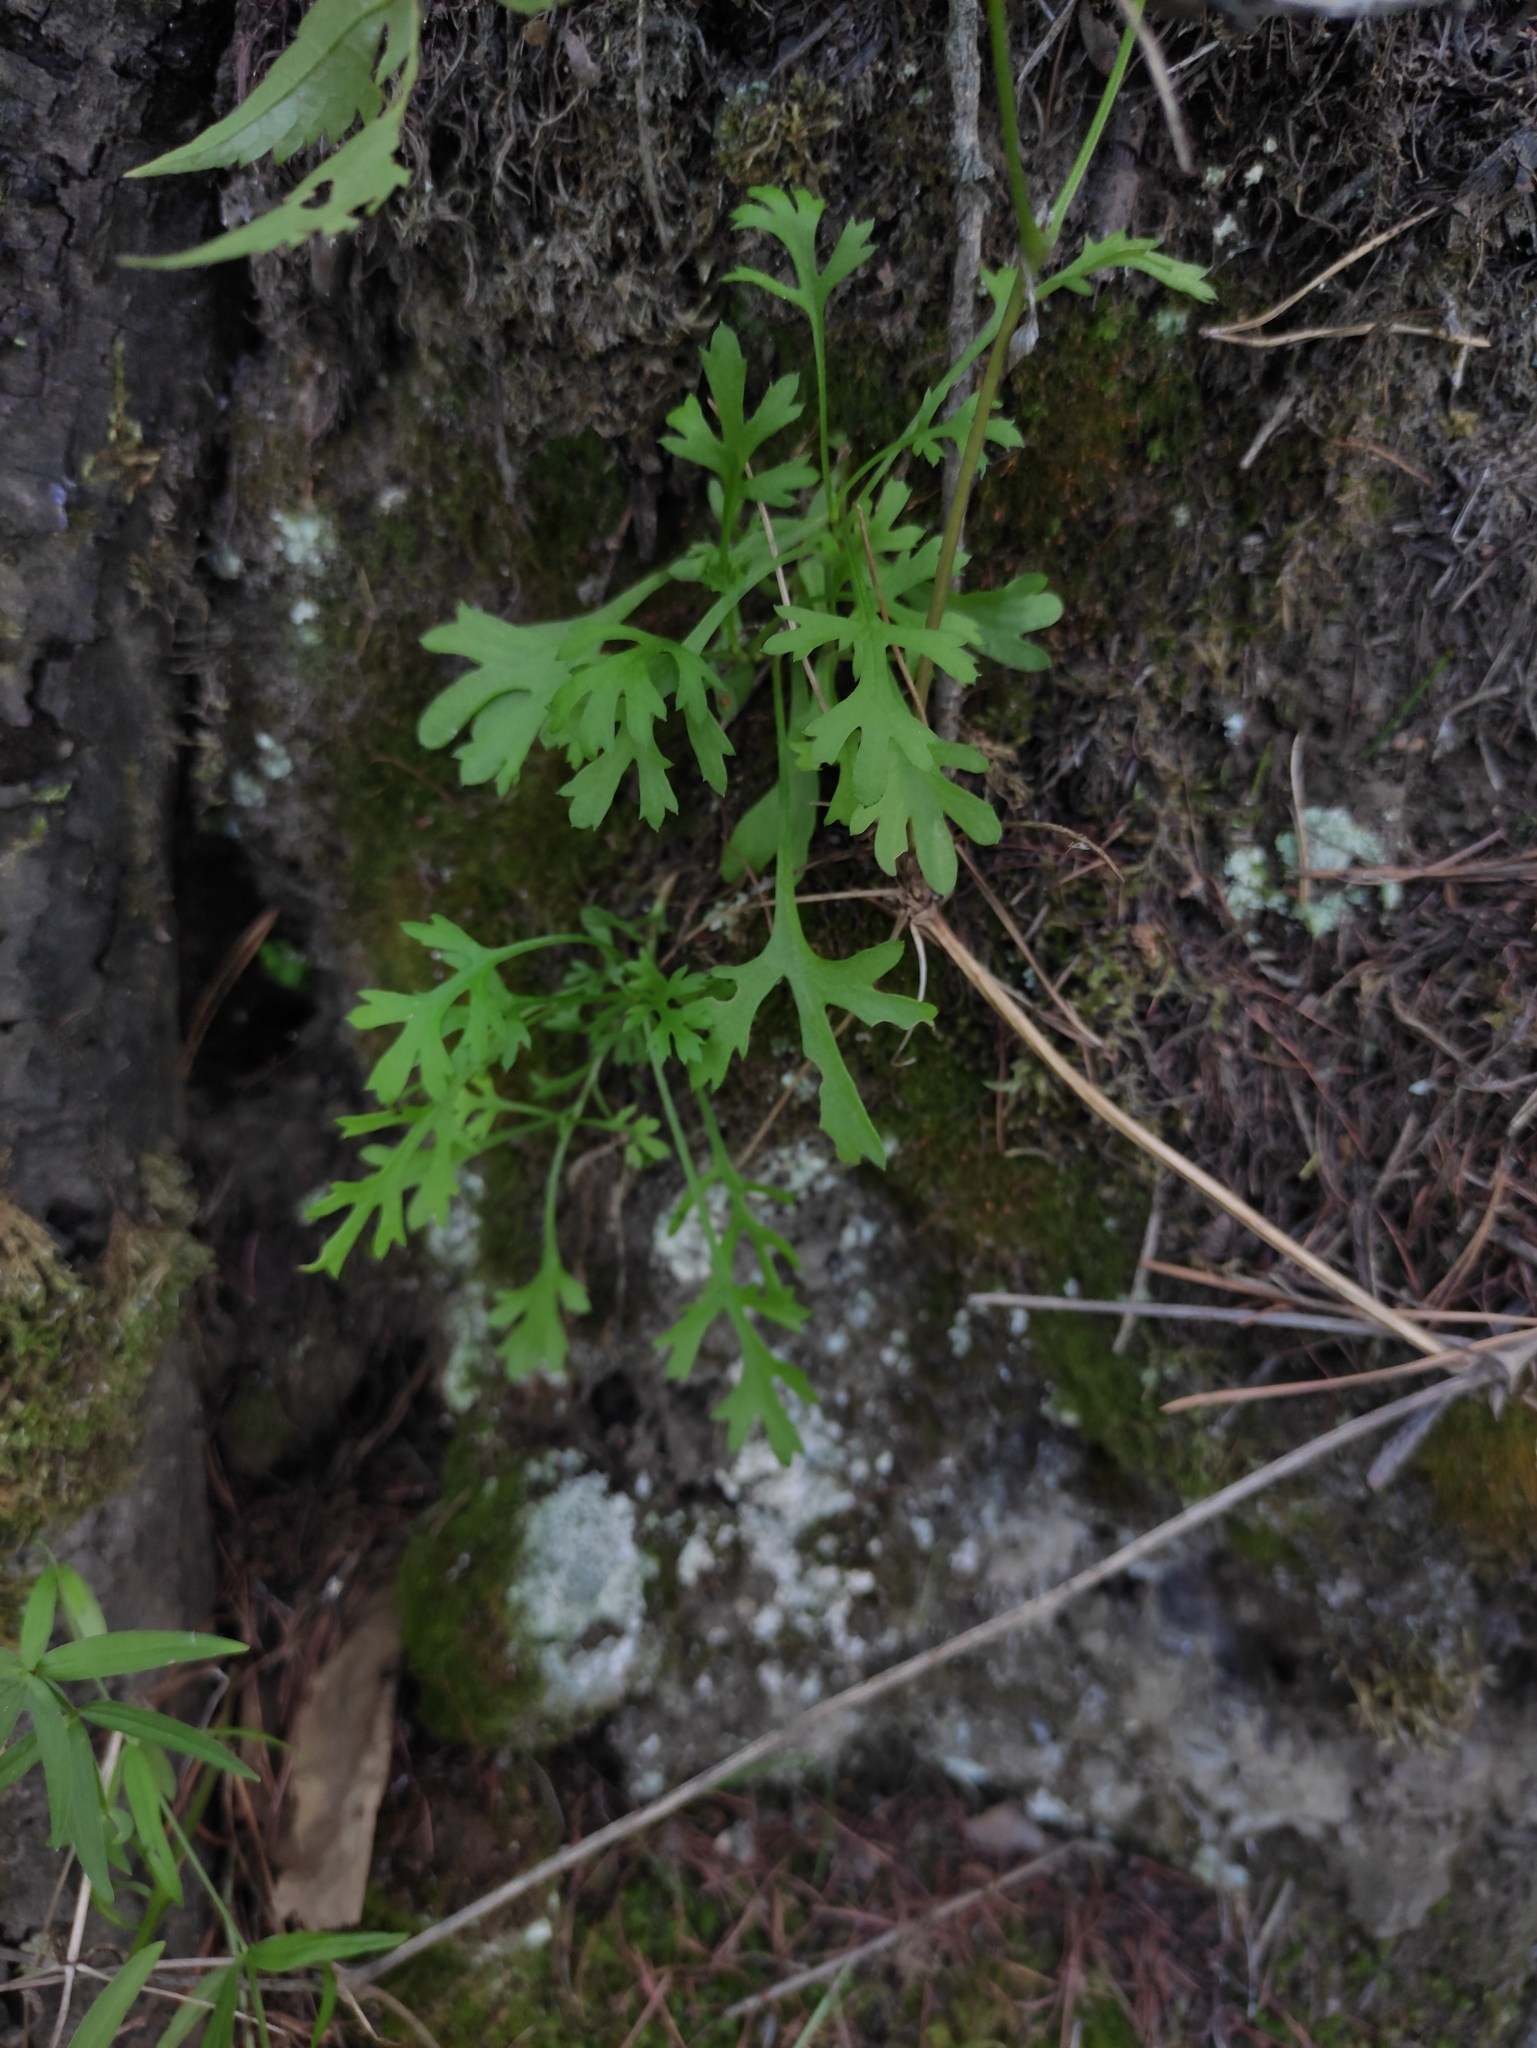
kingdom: Plantae
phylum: Tracheophyta
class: Magnoliopsida
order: Asterales
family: Asteraceae
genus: Chrysanthemum
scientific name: Chrysanthemum zawadzkii
